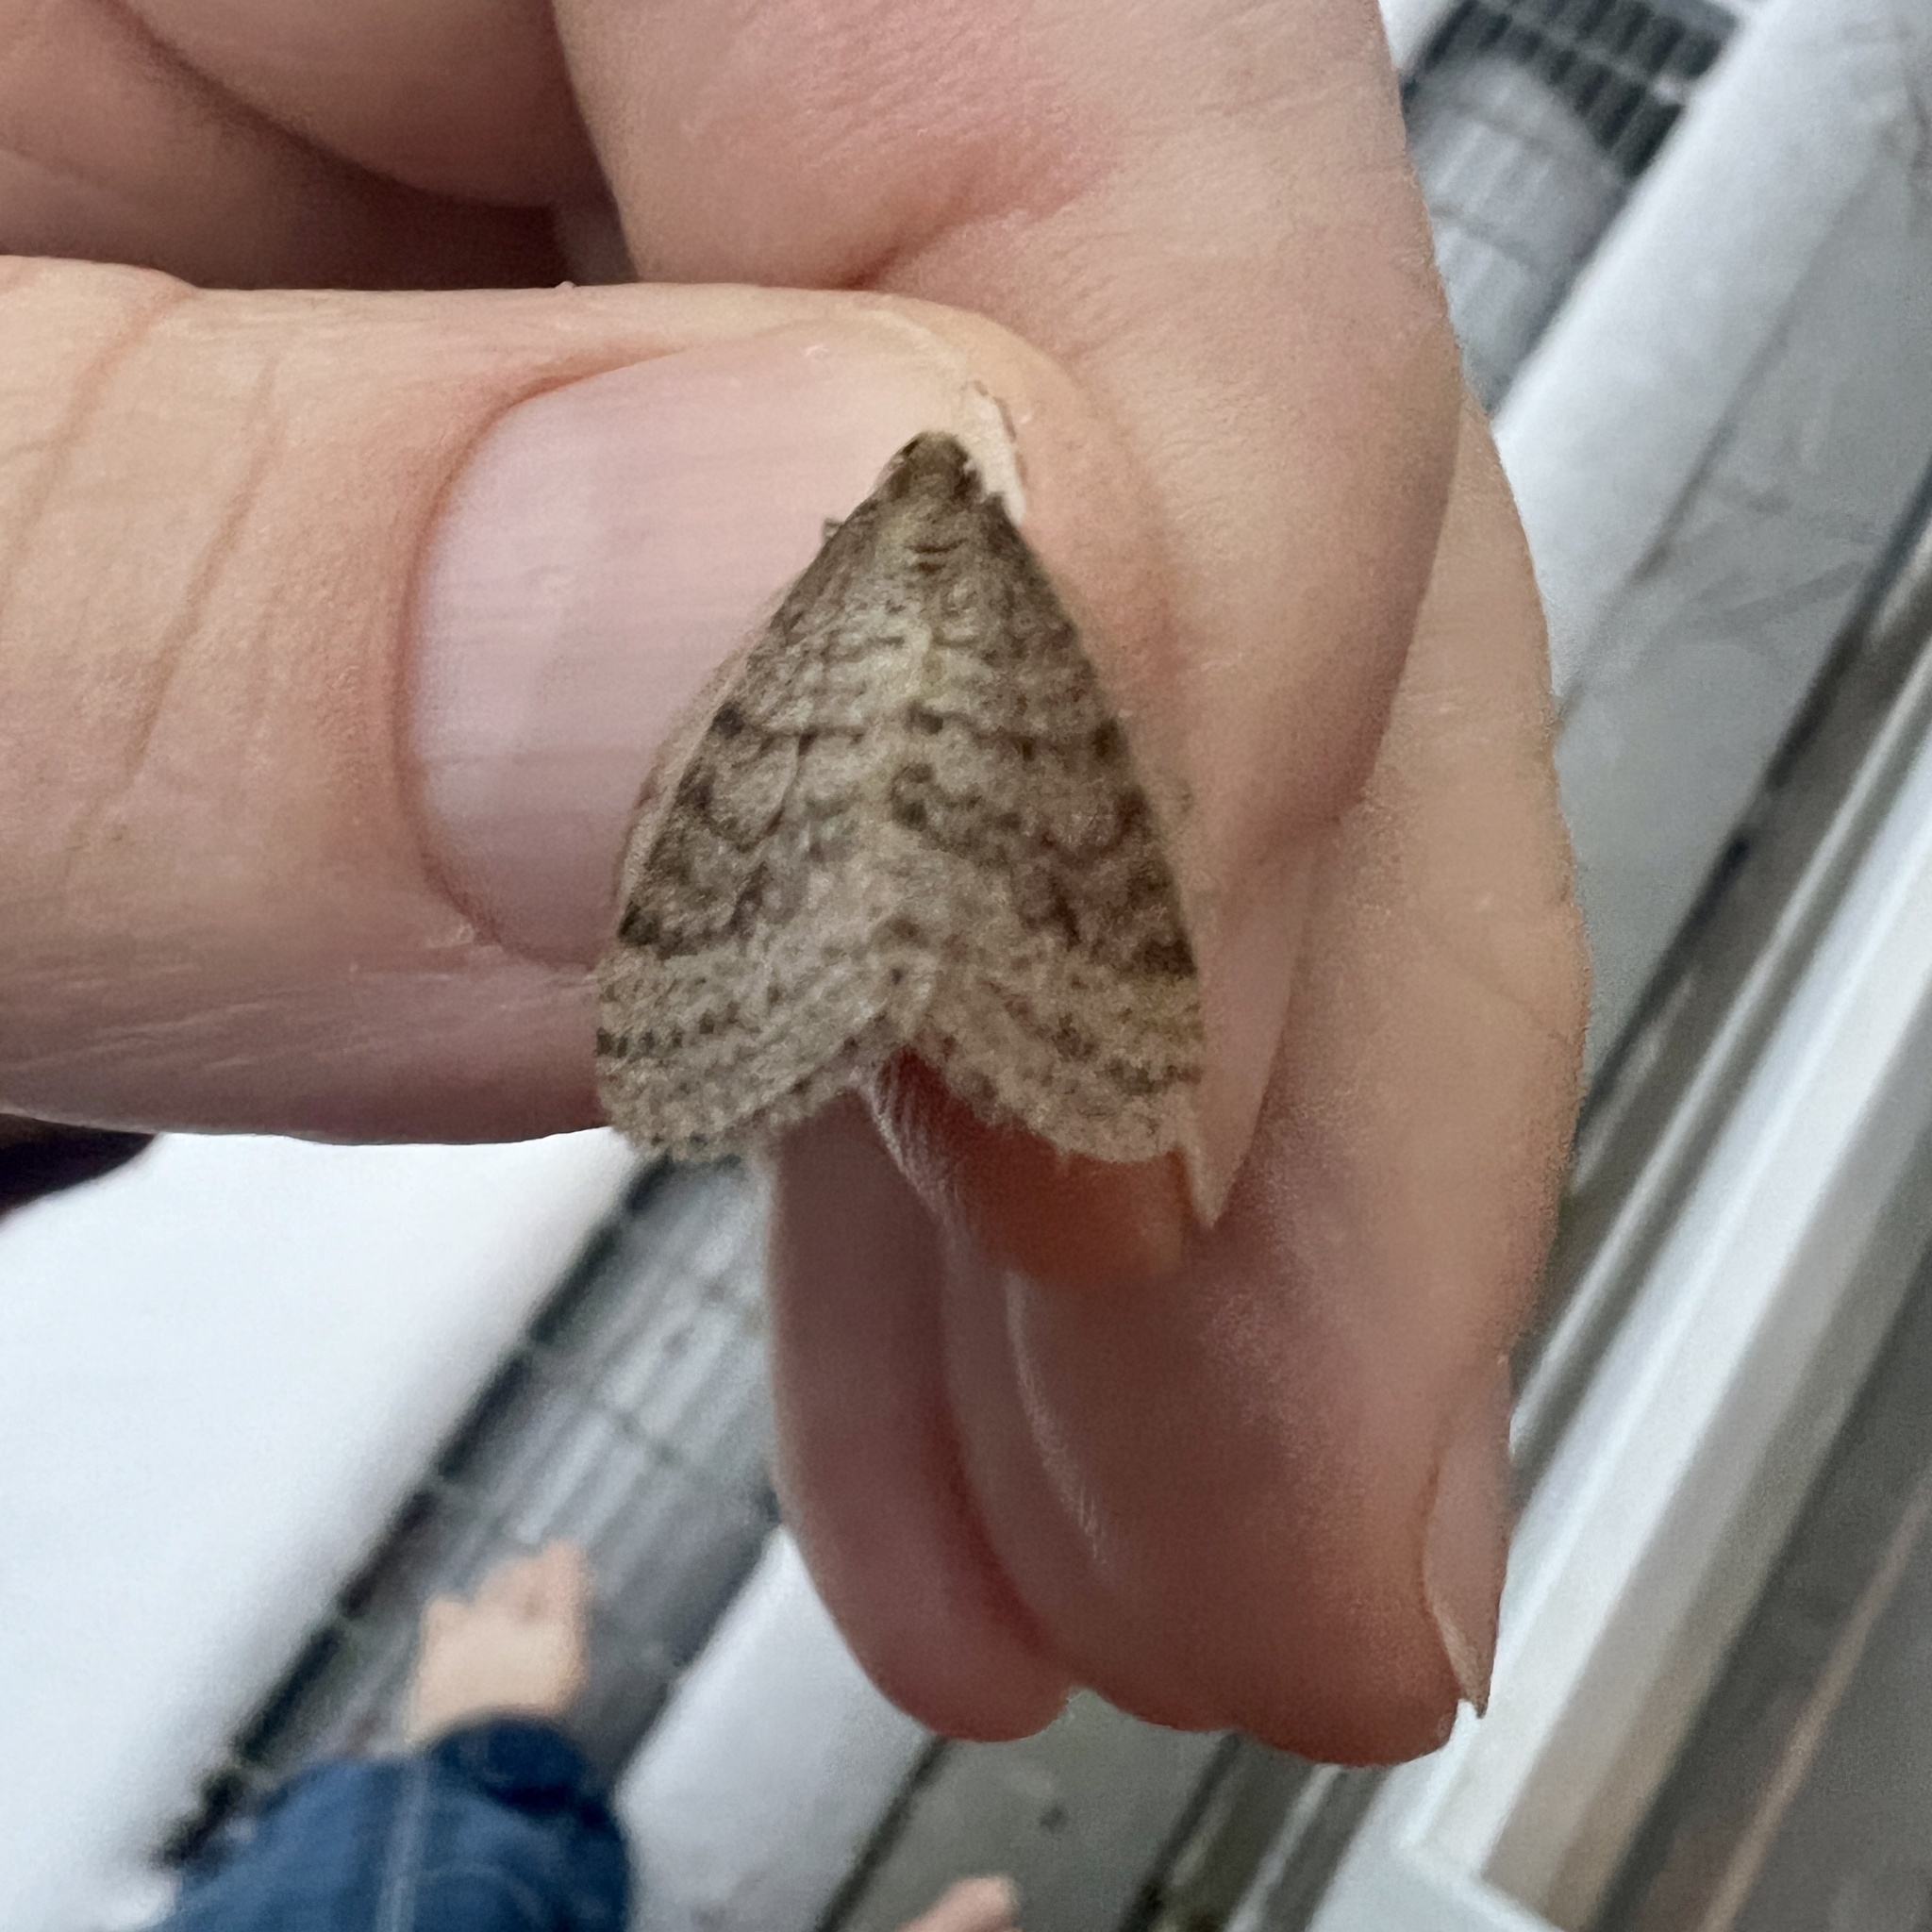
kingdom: Animalia
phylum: Arthropoda
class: Insecta
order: Lepidoptera
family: Geometridae
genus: Operophtera
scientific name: Operophtera bruceata
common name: Bruce spanworm
